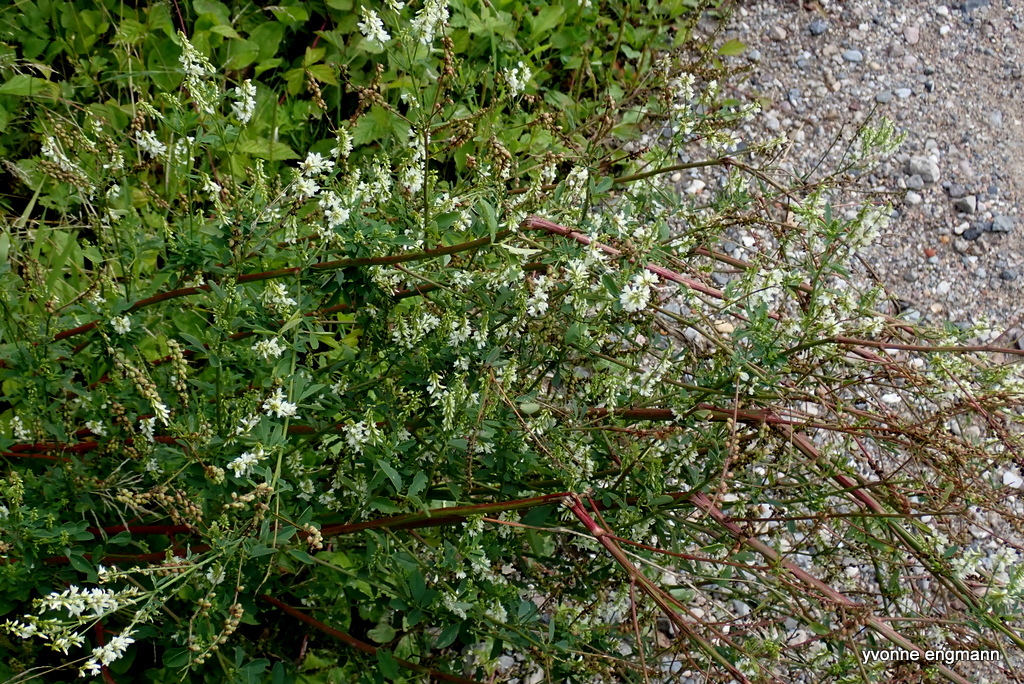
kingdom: Plantae
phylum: Tracheophyta
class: Magnoliopsida
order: Fabales
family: Fabaceae
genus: Melilotus
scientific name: Melilotus albus
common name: White melilot
